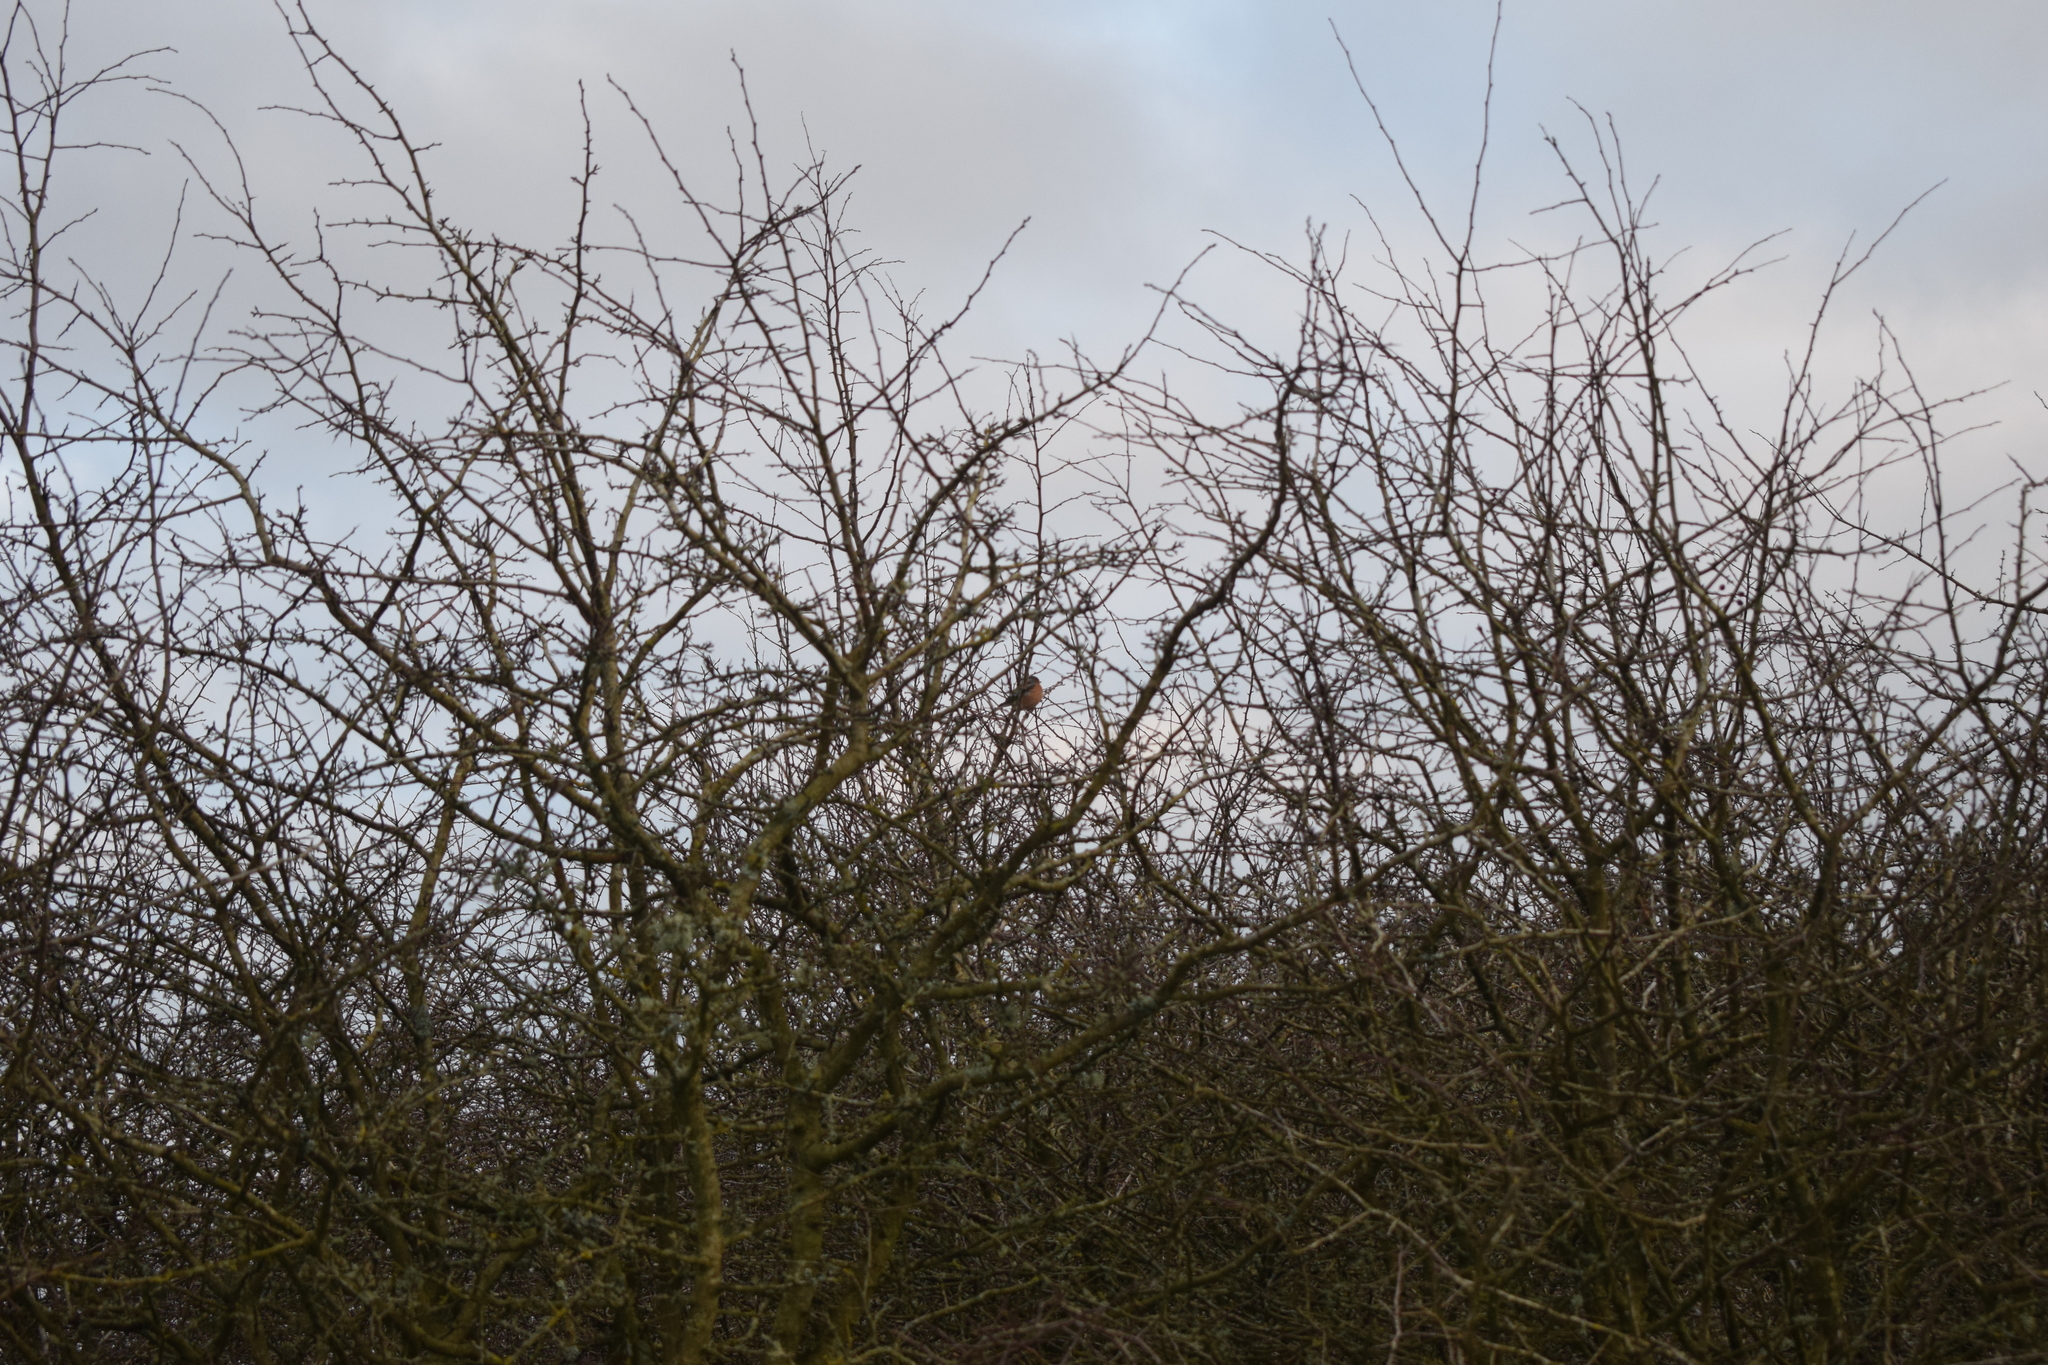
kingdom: Animalia
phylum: Chordata
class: Aves
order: Passeriformes
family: Fringillidae
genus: Fringilla
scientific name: Fringilla coelebs
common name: Common chaffinch
